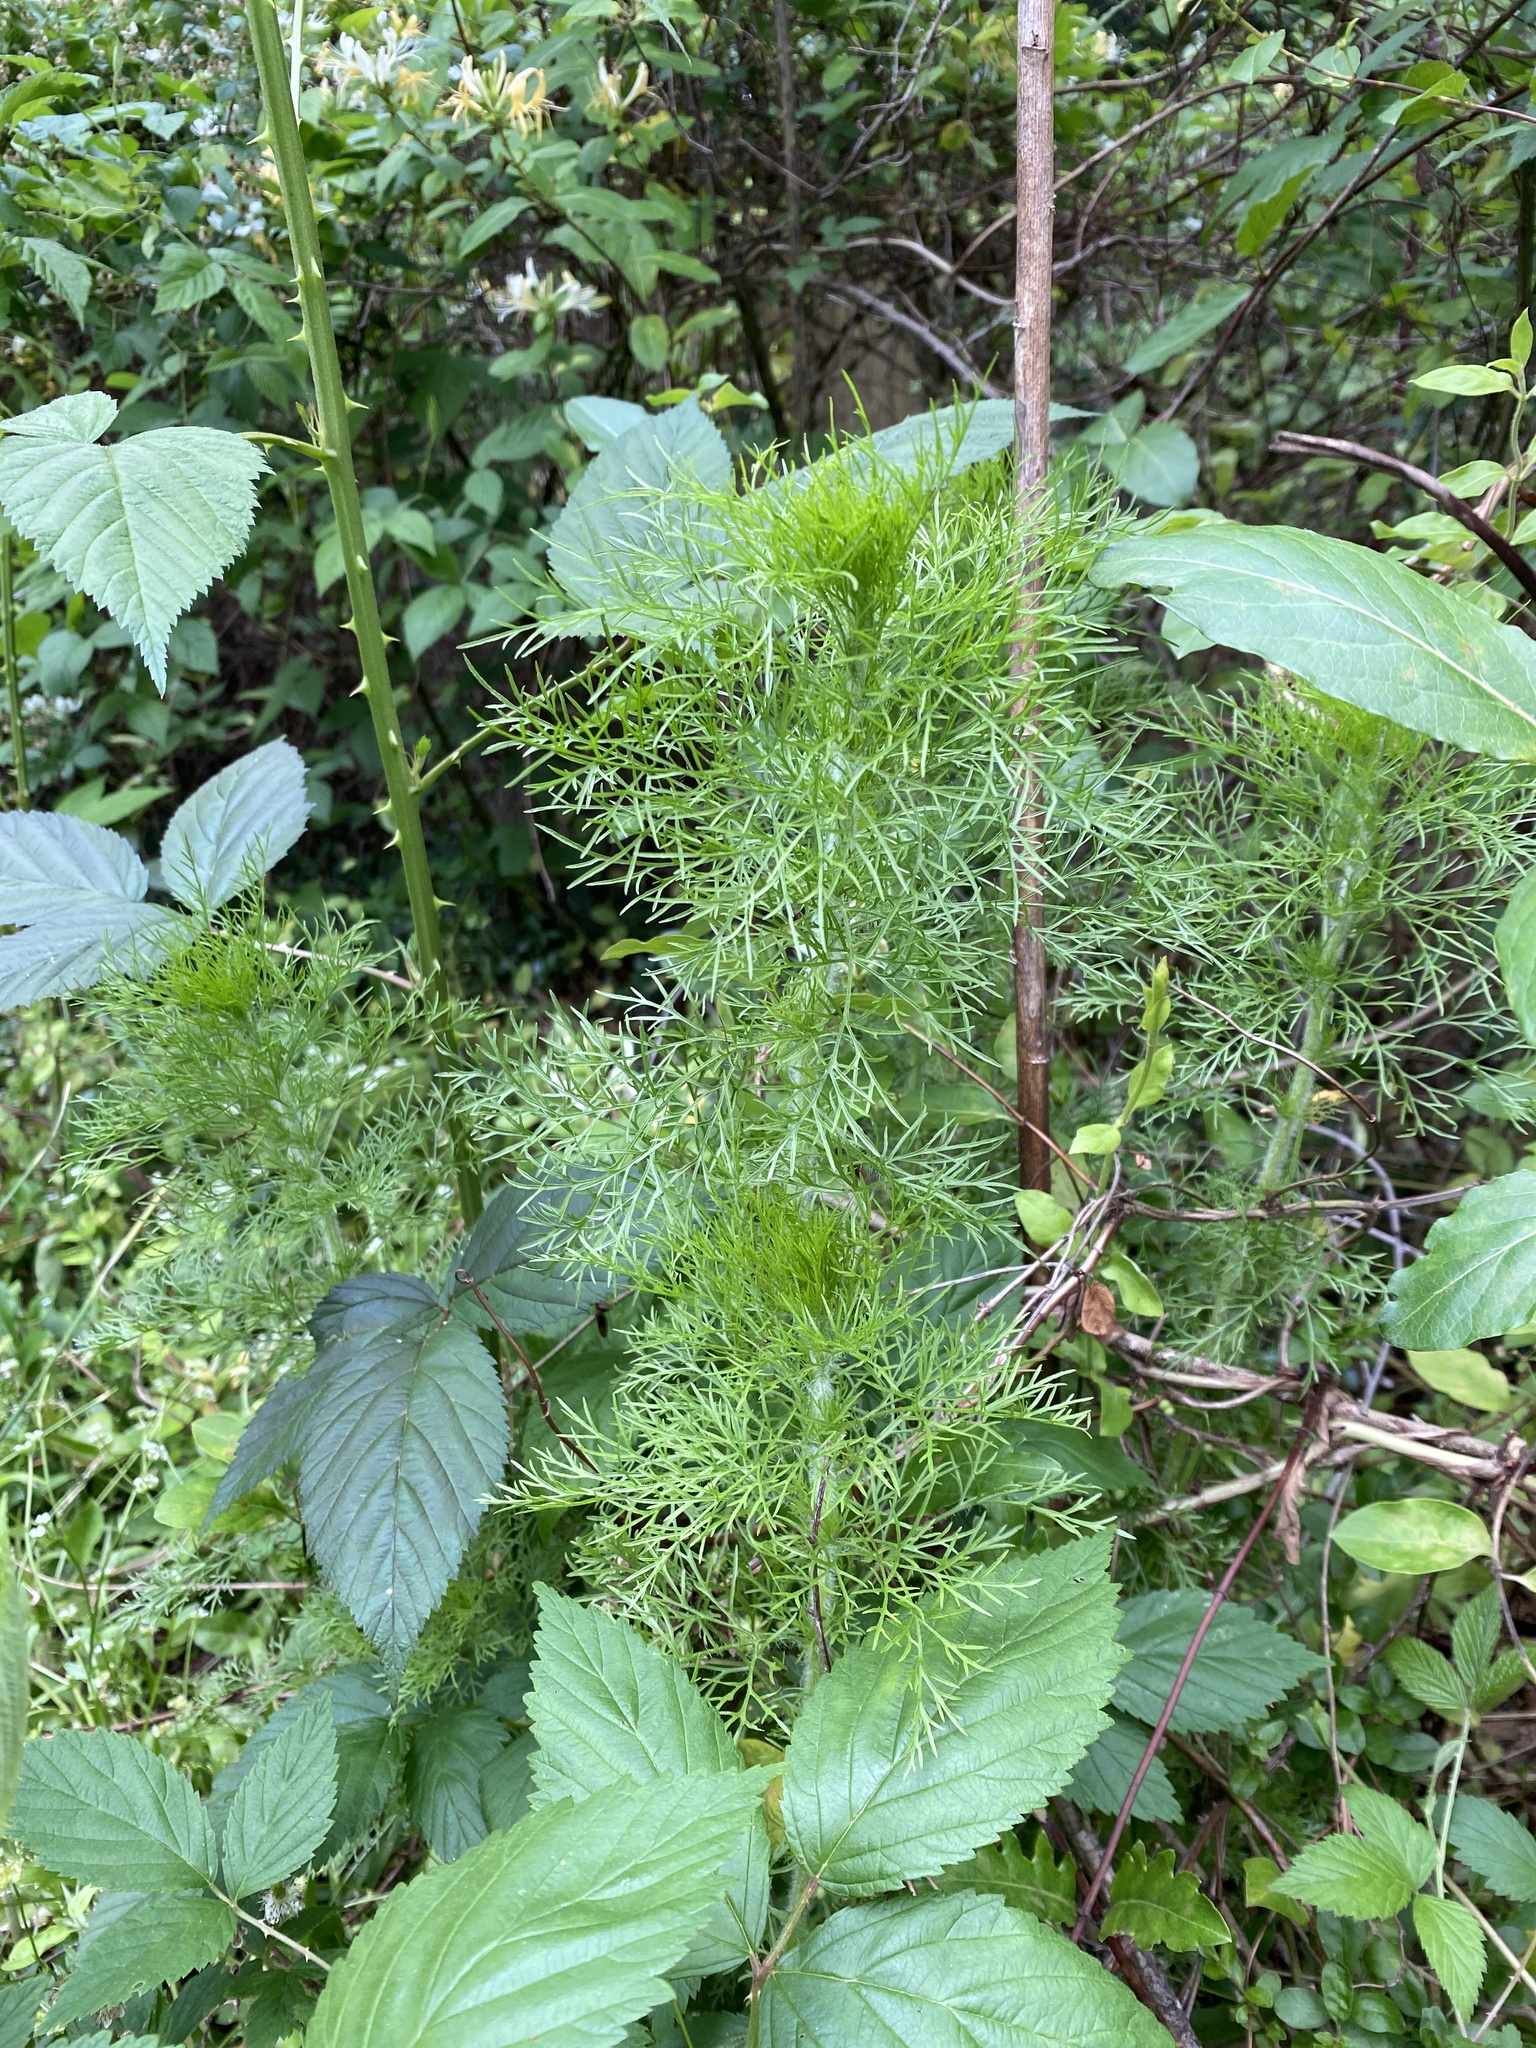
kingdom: Plantae
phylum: Tracheophyta
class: Magnoliopsida
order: Asterales
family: Asteraceae
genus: Eupatorium
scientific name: Eupatorium capillifolium
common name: Dog-fennel
